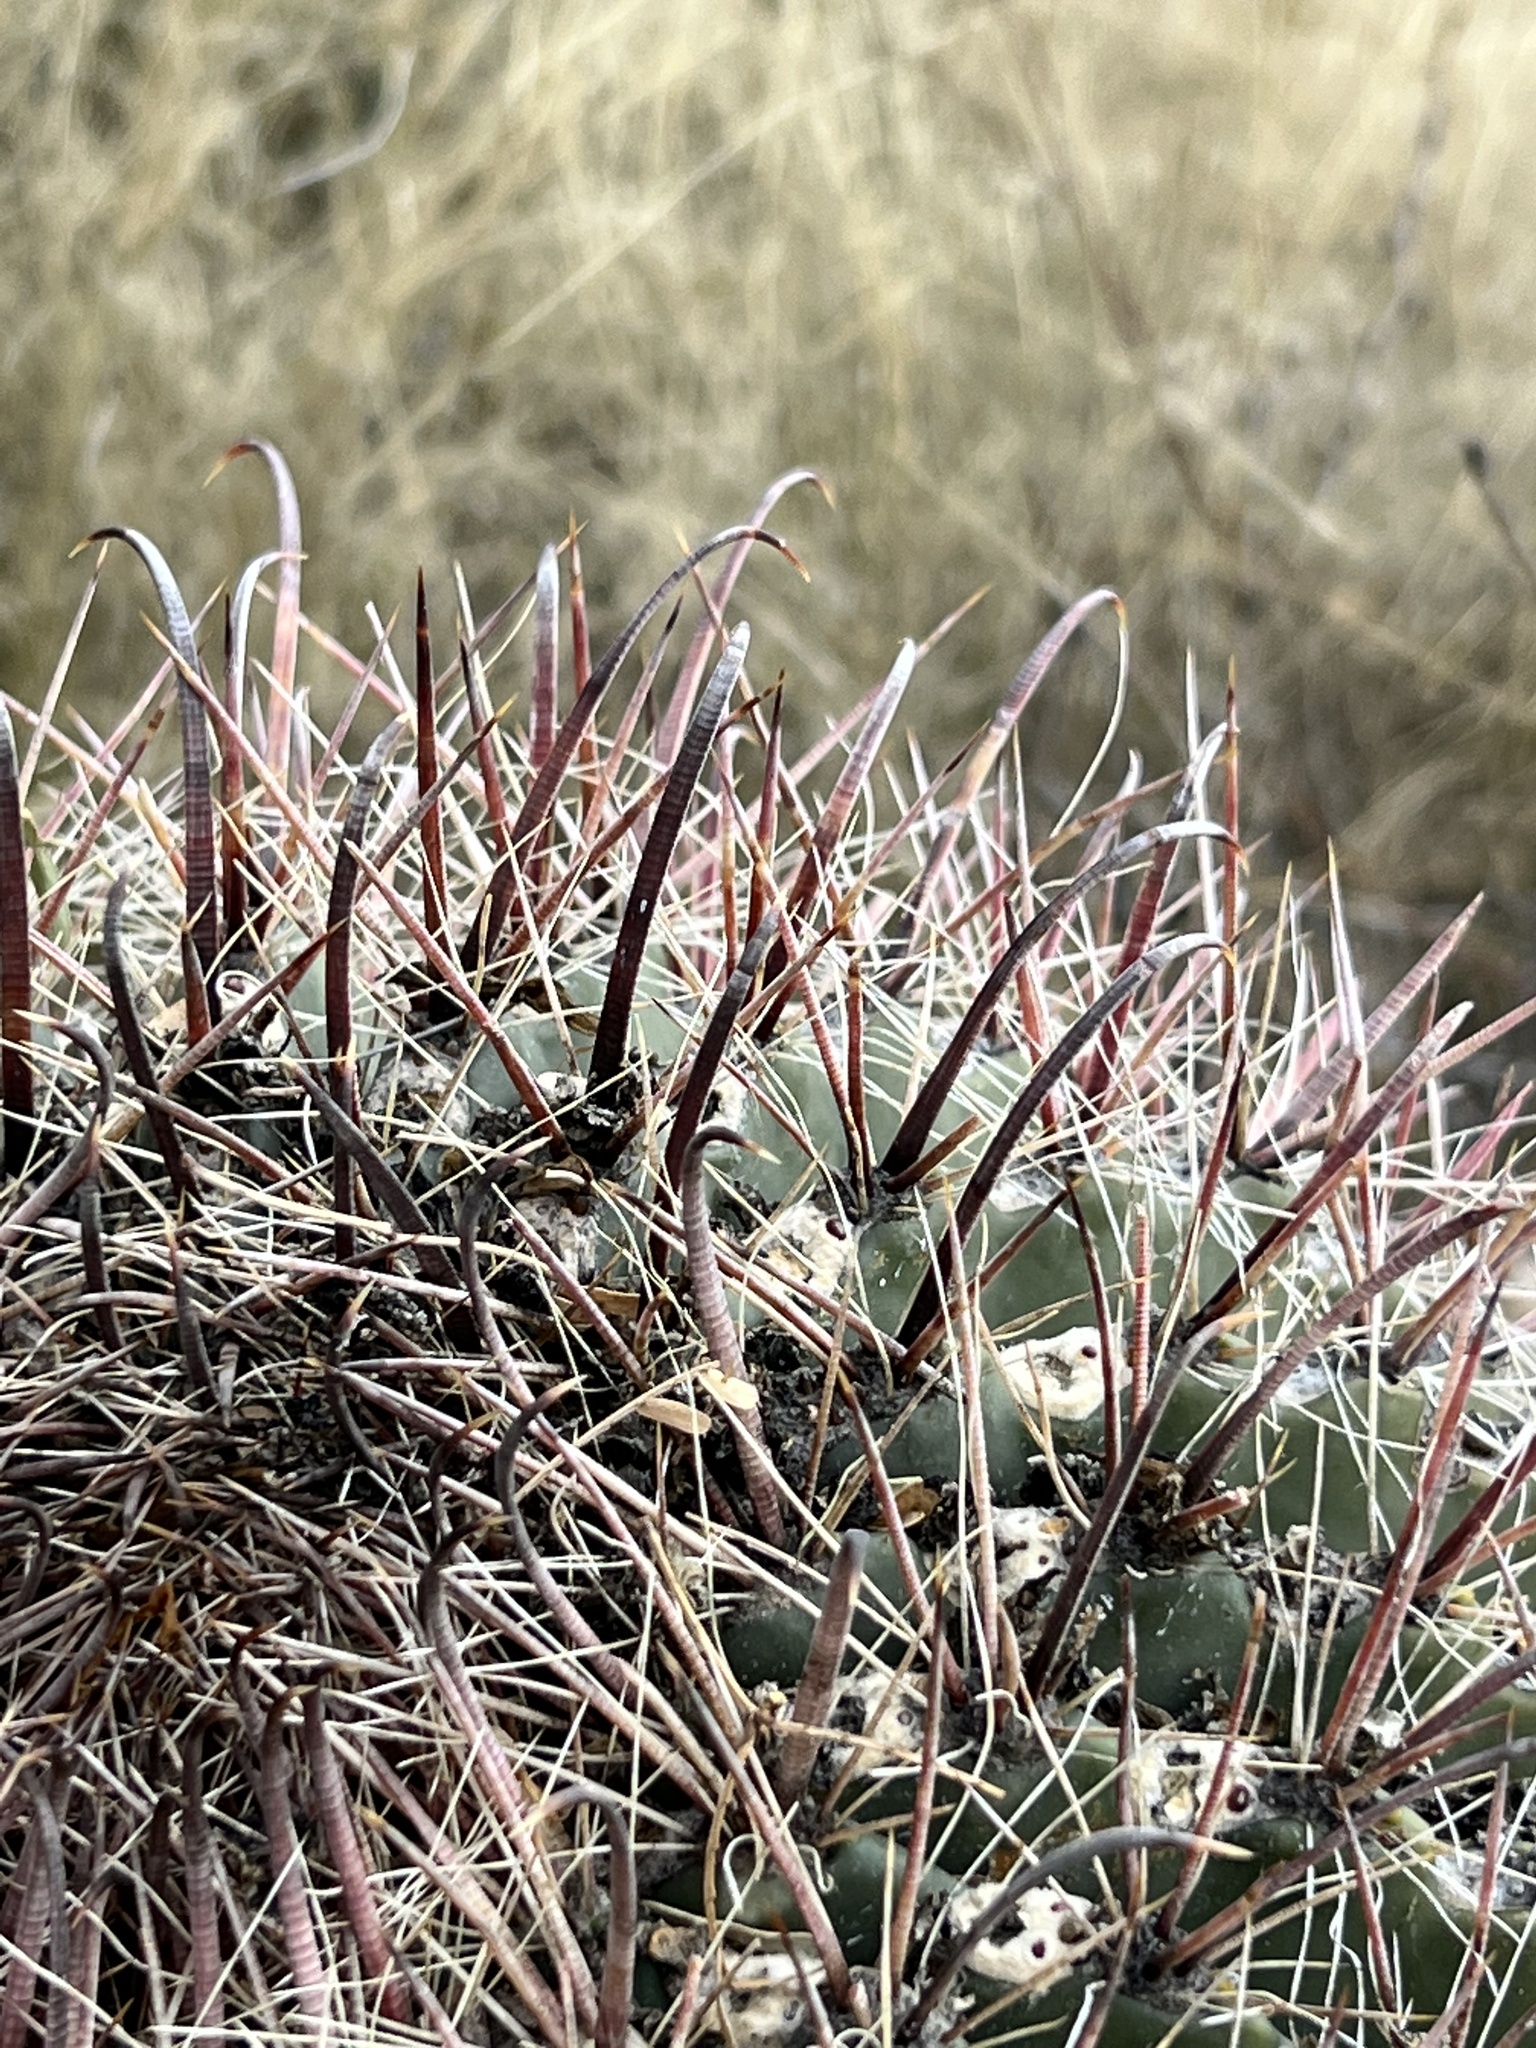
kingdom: Plantae
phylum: Tracheophyta
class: Magnoliopsida
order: Caryophyllales
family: Cactaceae
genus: Ferocactus
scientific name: Ferocactus wislizeni
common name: Candy barrel cactus
